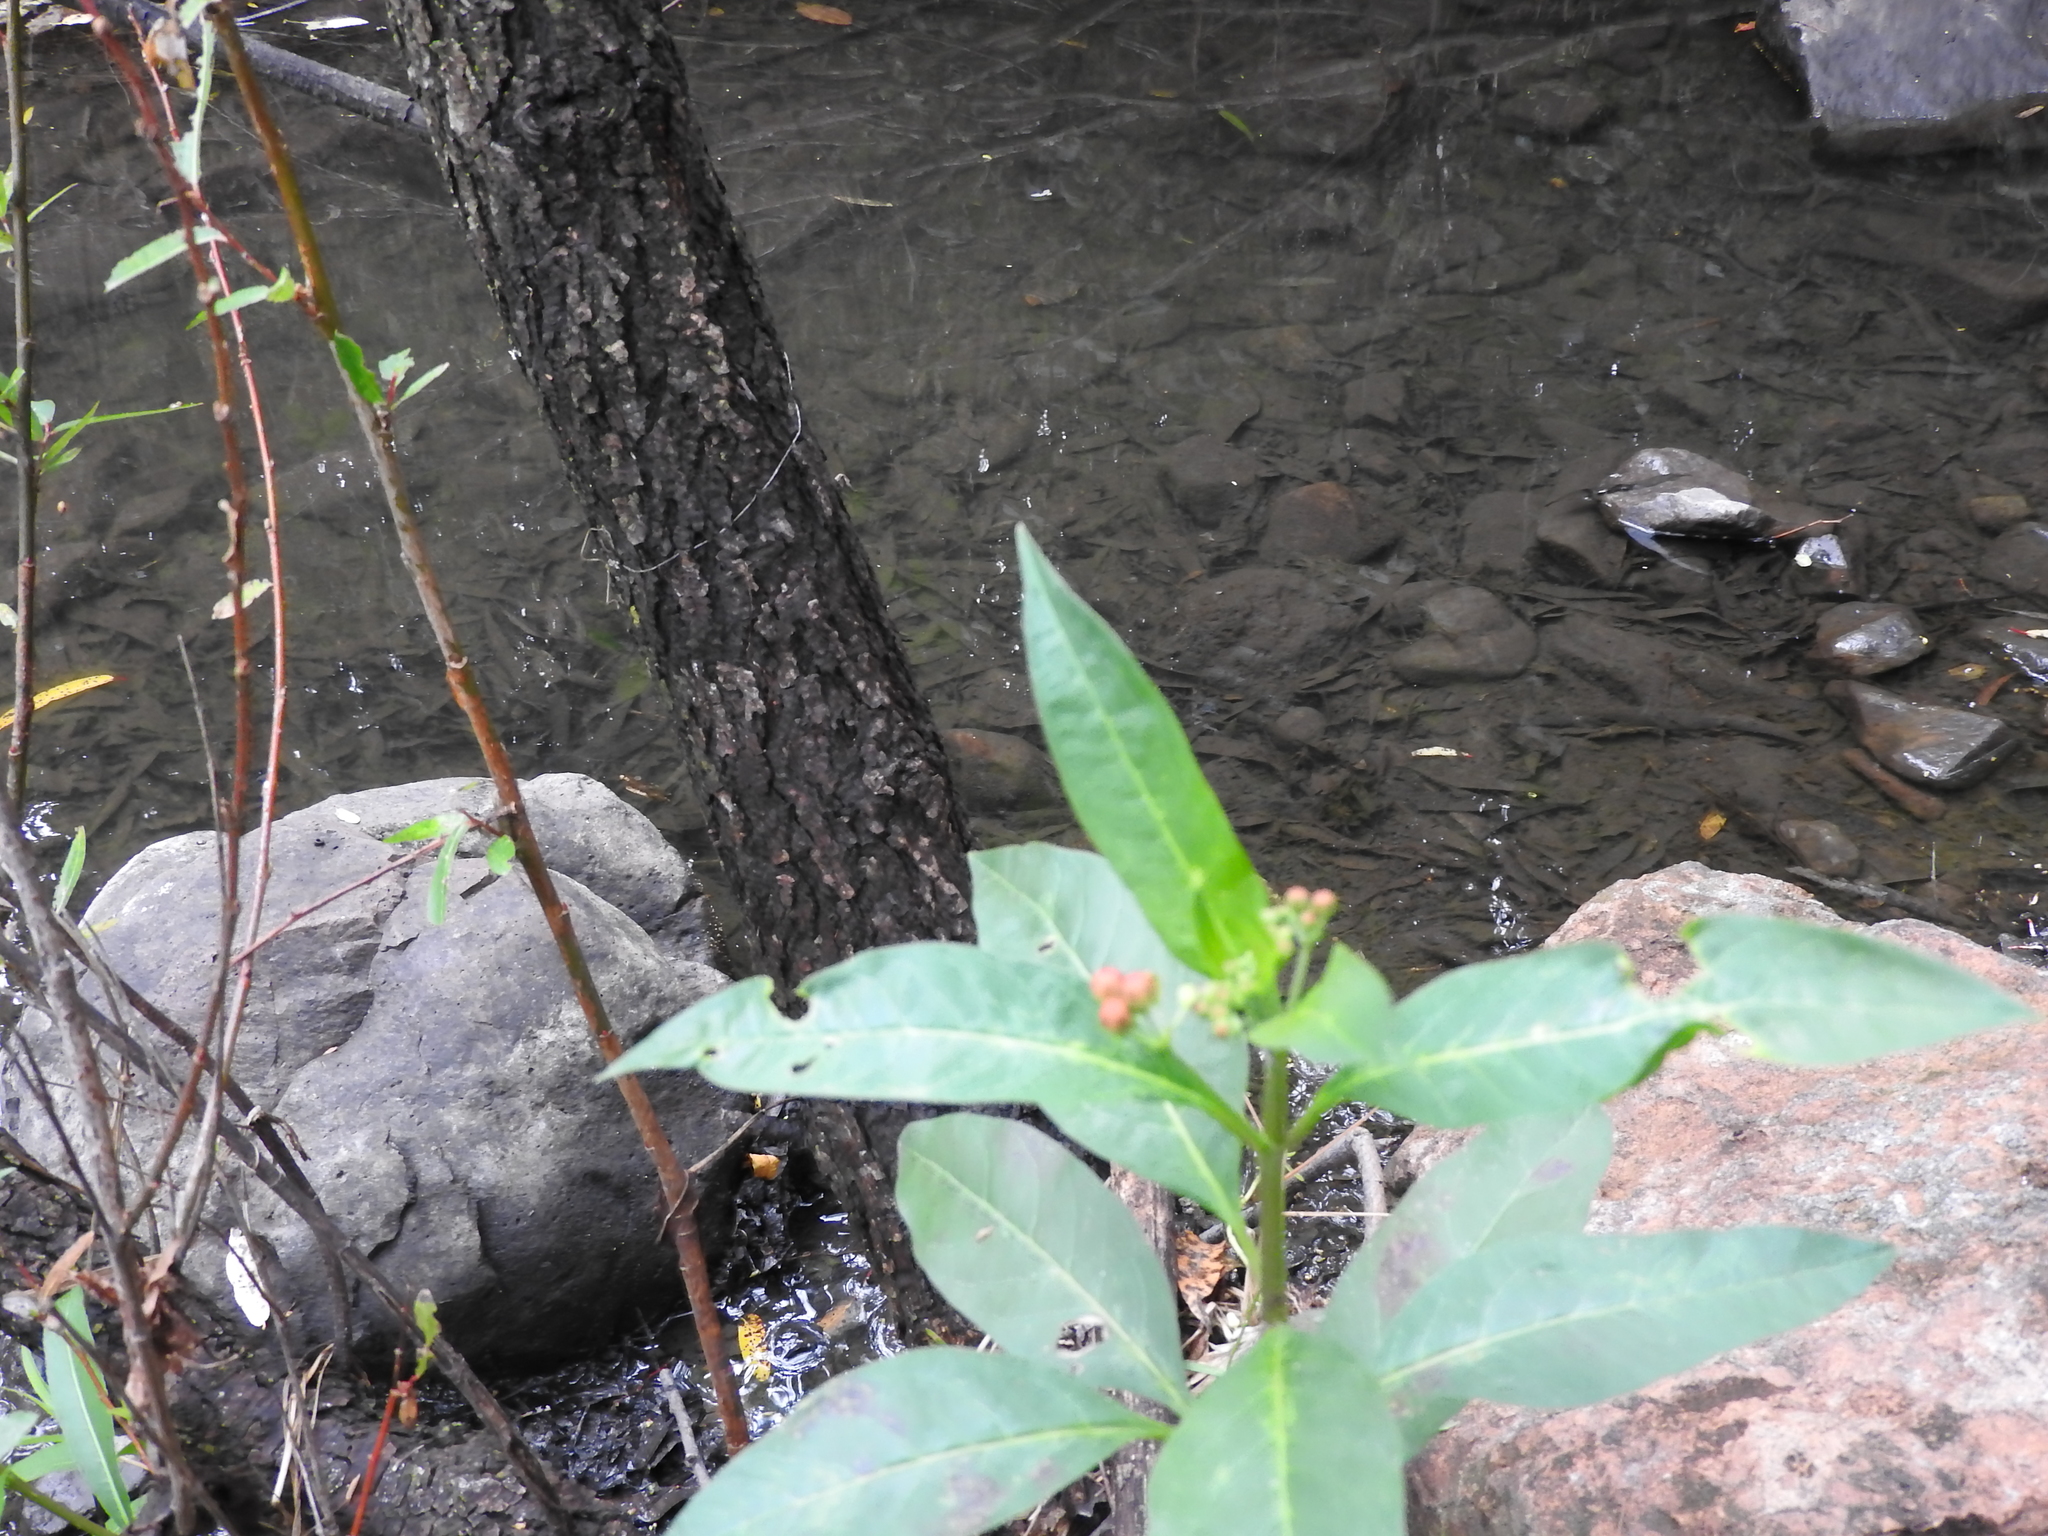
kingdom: Plantae
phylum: Tracheophyta
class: Magnoliopsida
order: Gentianales
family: Apocynaceae
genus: Asclepias
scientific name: Asclepias curassavica
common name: Bloodflower
